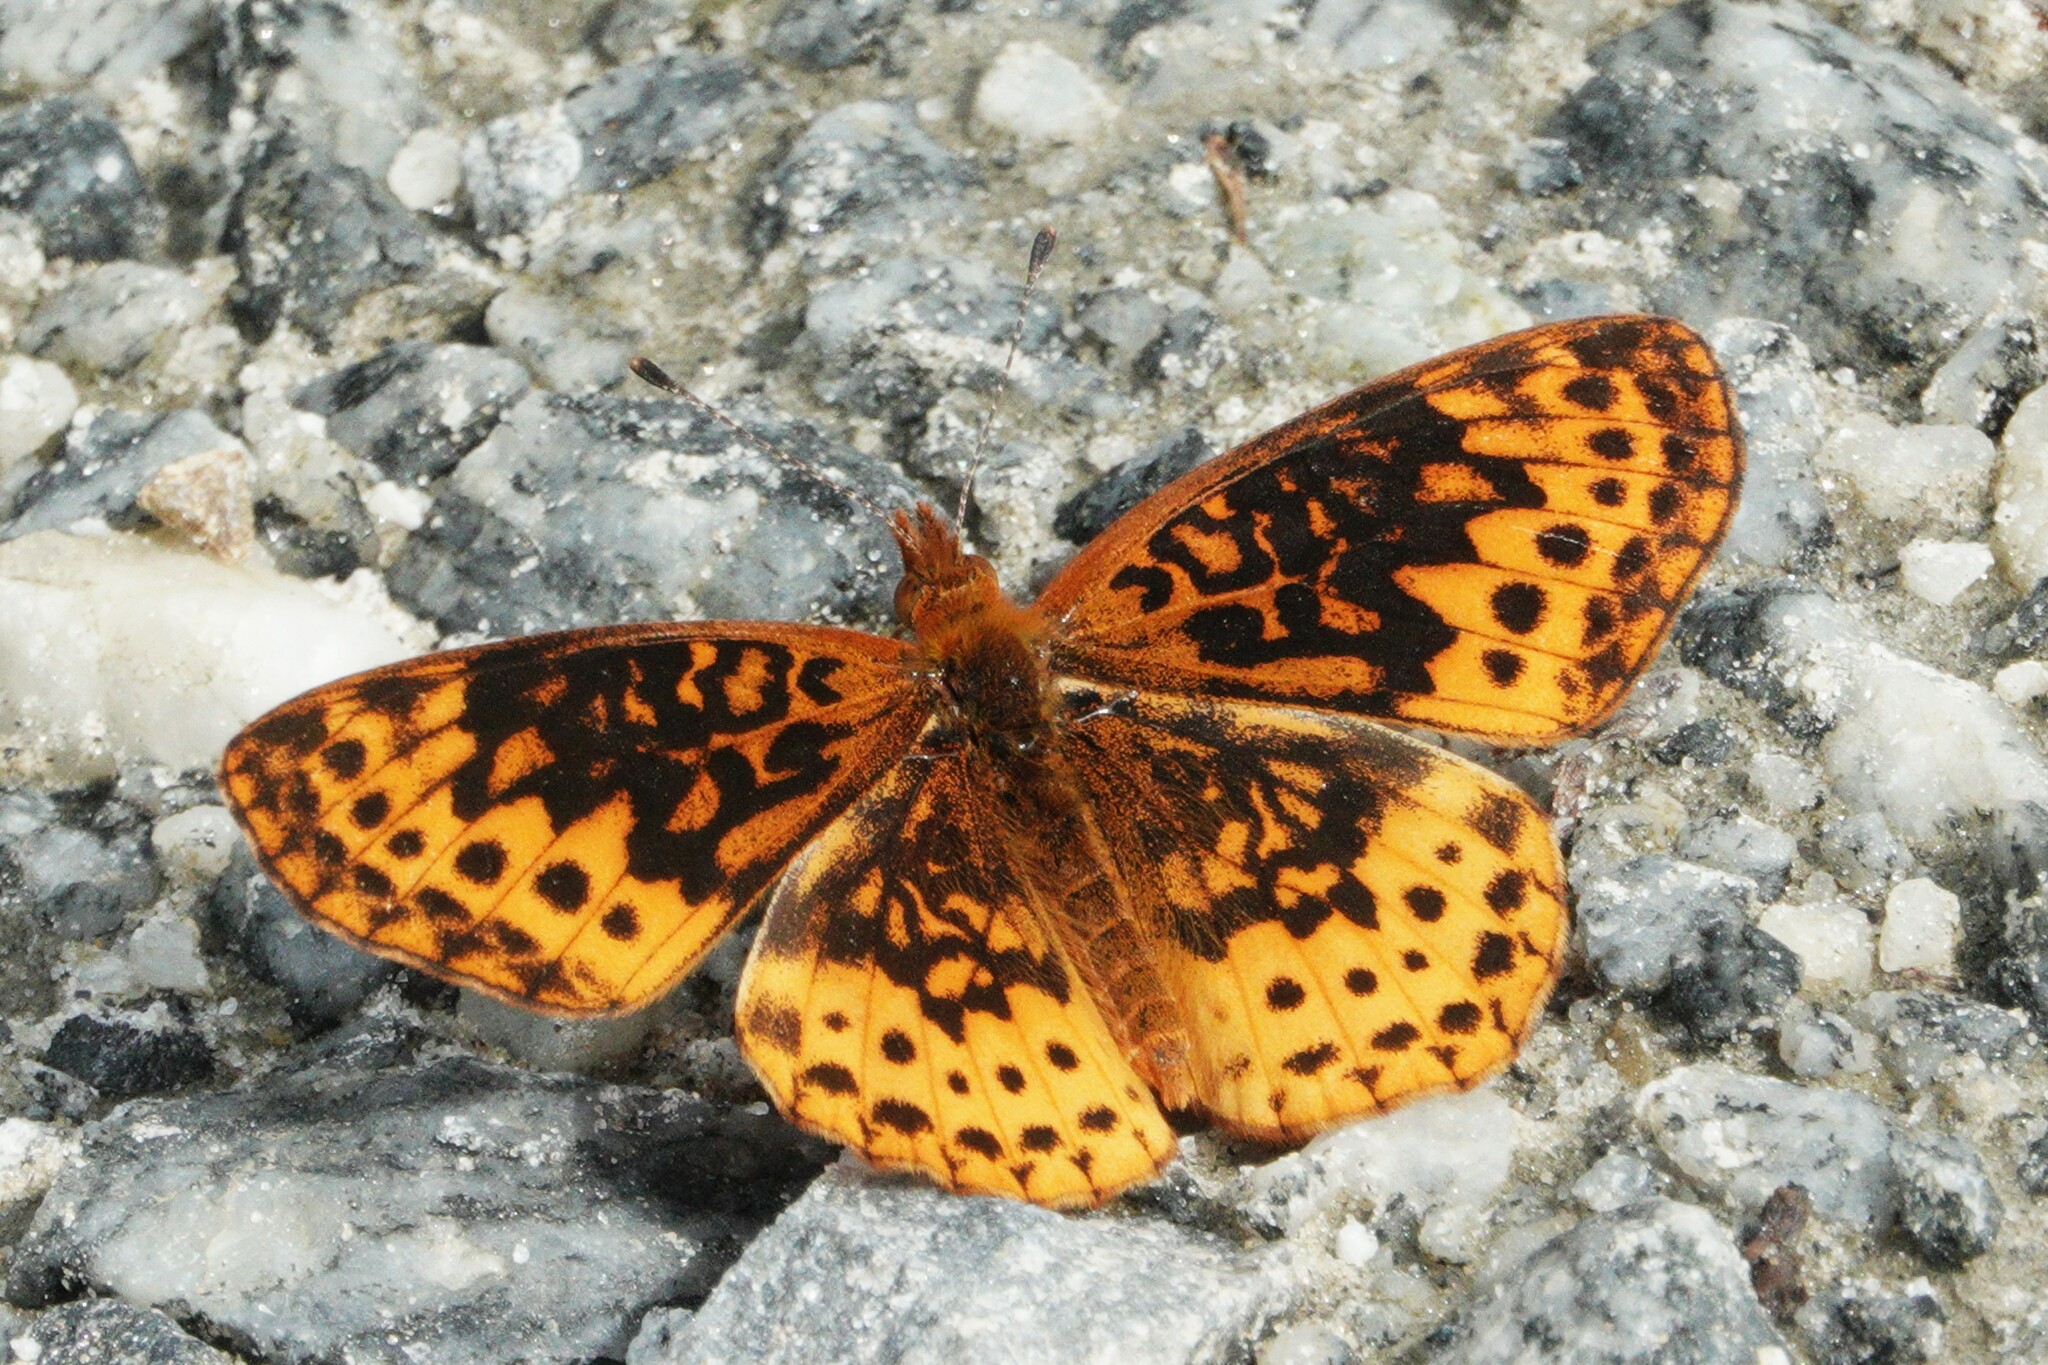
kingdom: Animalia
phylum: Arthropoda
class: Insecta
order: Lepidoptera
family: Nymphalidae
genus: Clossiana
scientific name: Clossiana toddi
